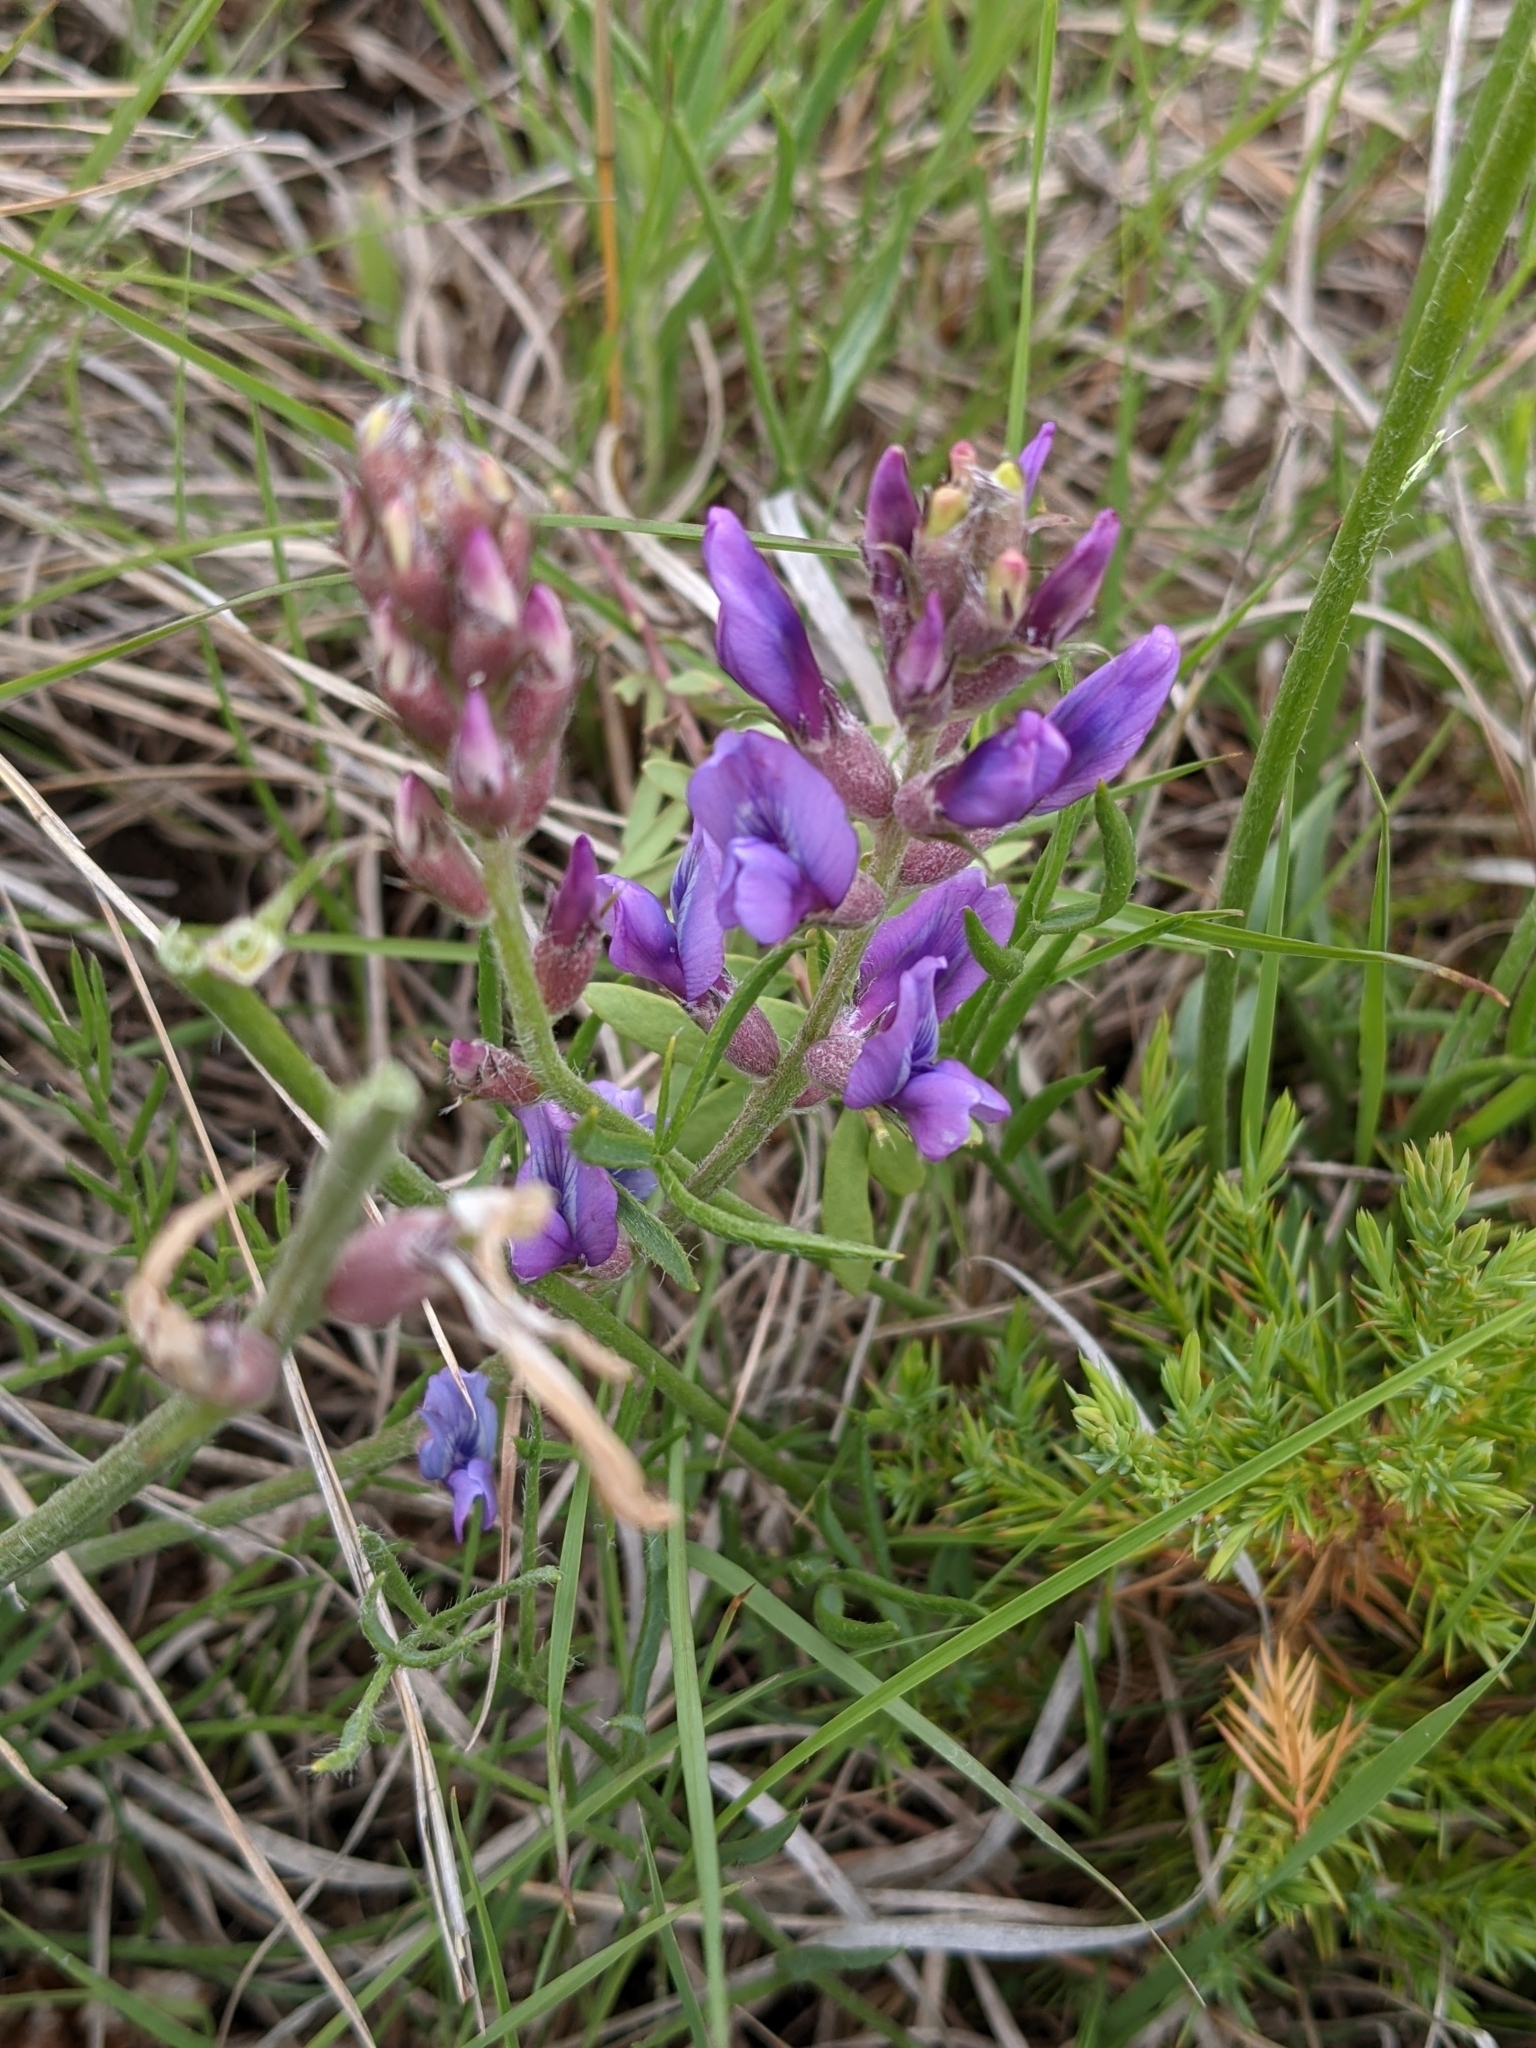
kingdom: Plantae
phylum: Tracheophyta
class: Magnoliopsida
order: Fabales
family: Fabaceae
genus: Oxytropis
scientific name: Oxytropis lambertii
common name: Purple locoweed
